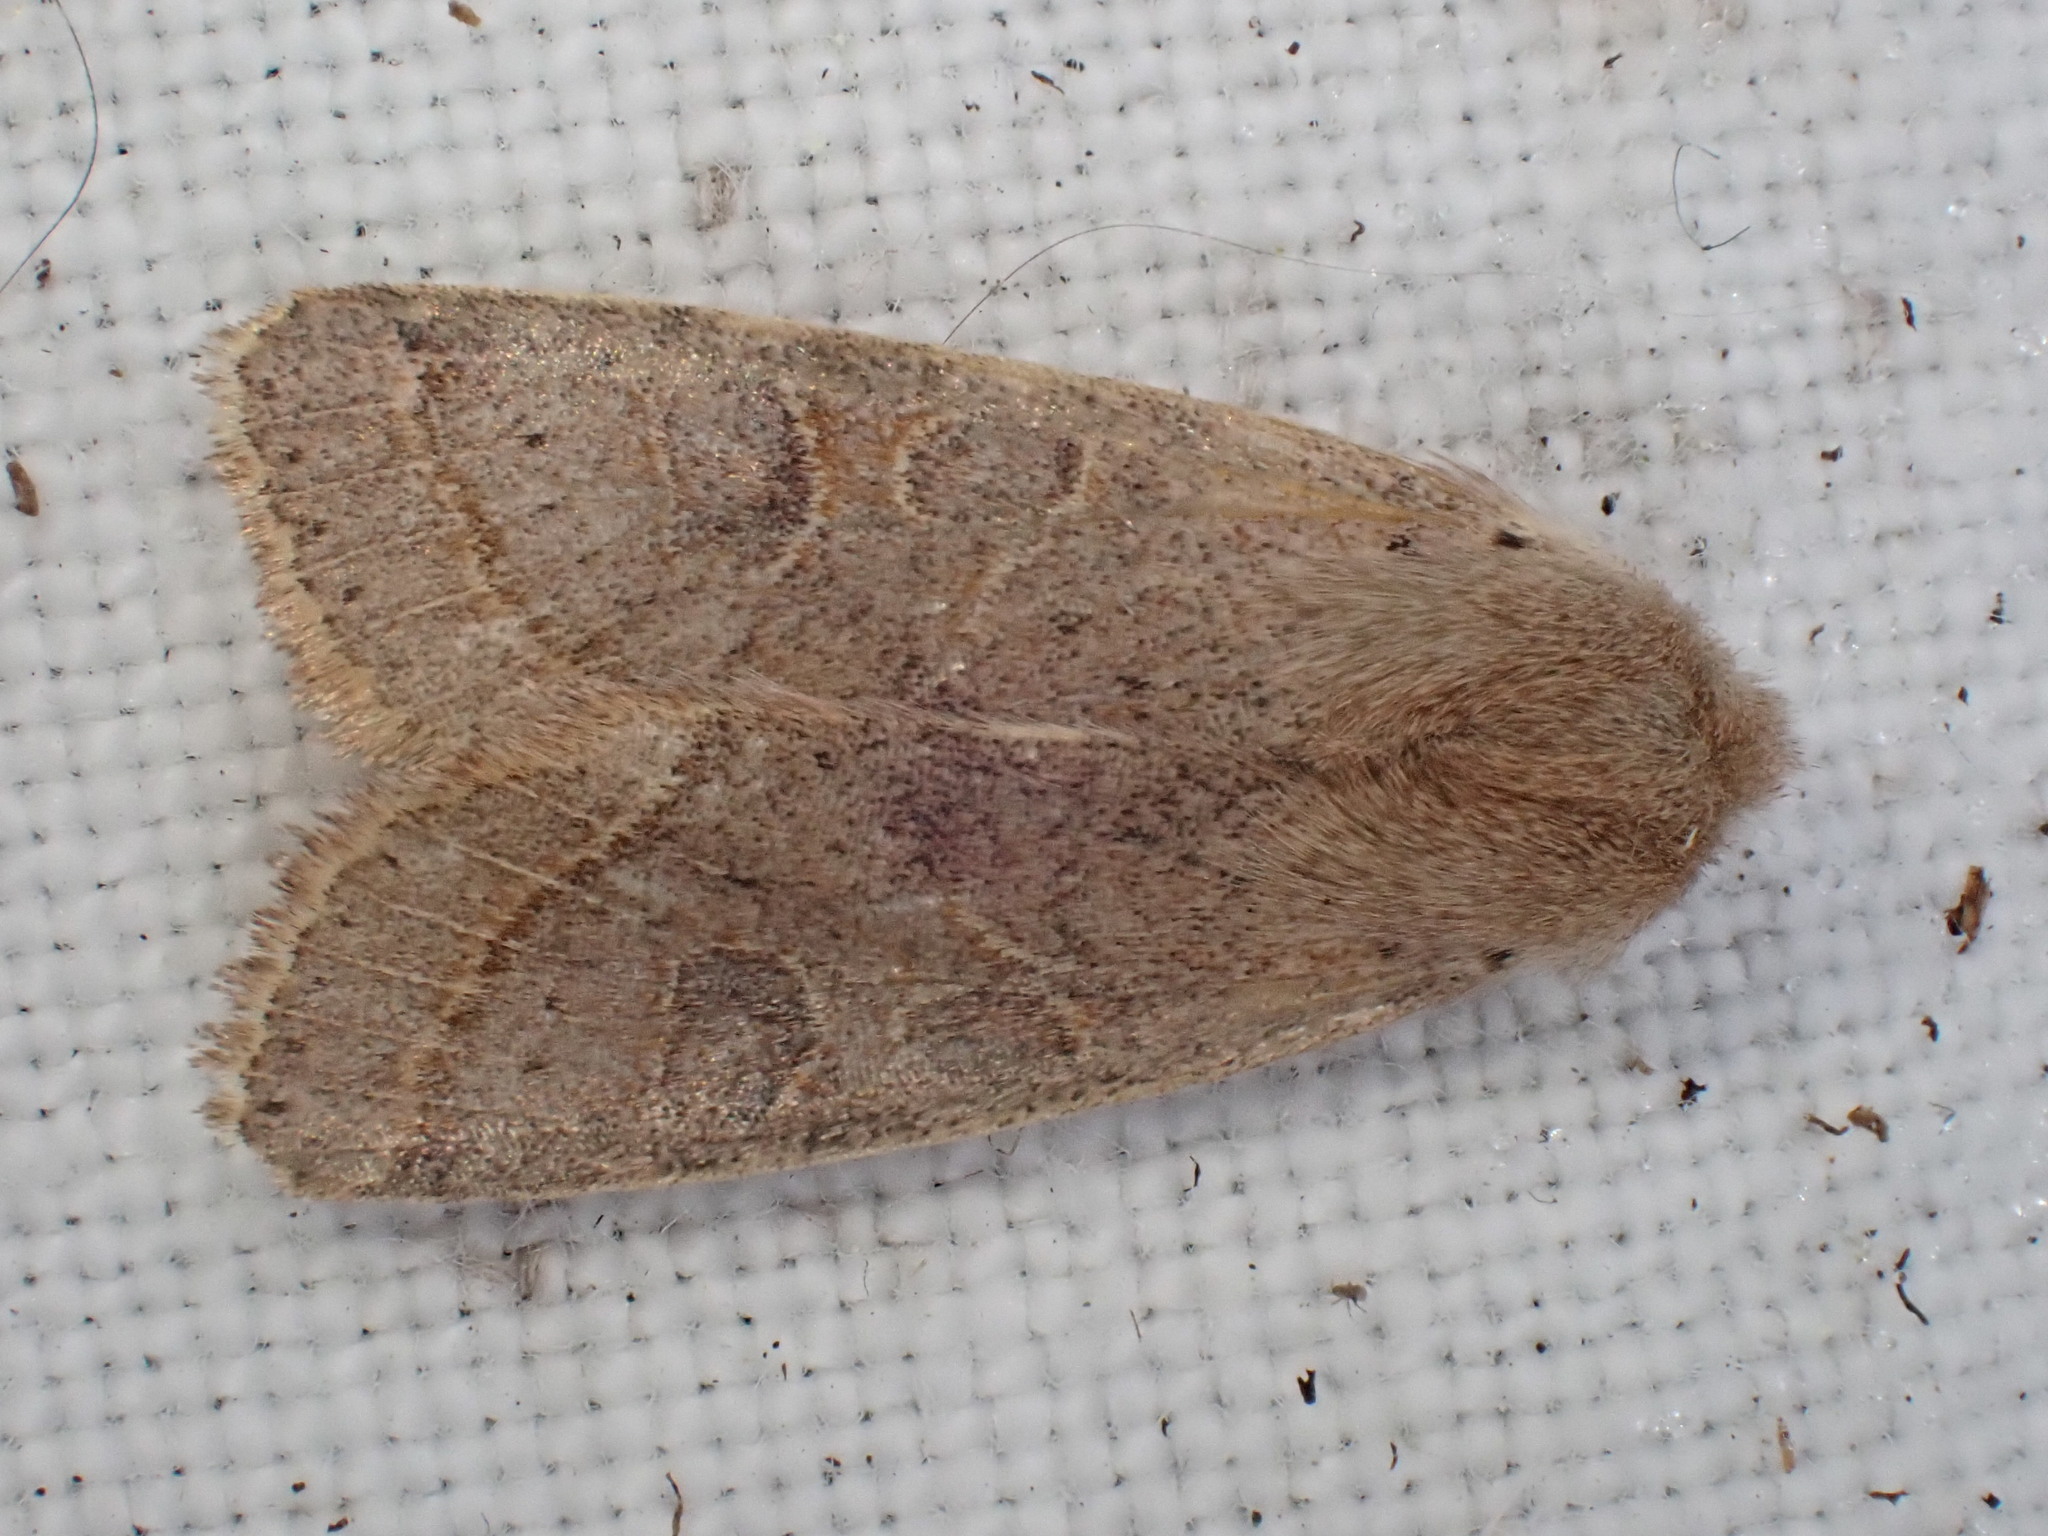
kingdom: Animalia
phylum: Arthropoda
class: Insecta
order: Lepidoptera
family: Noctuidae
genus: Orthosia
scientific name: Orthosia cerasi
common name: Common quaker
